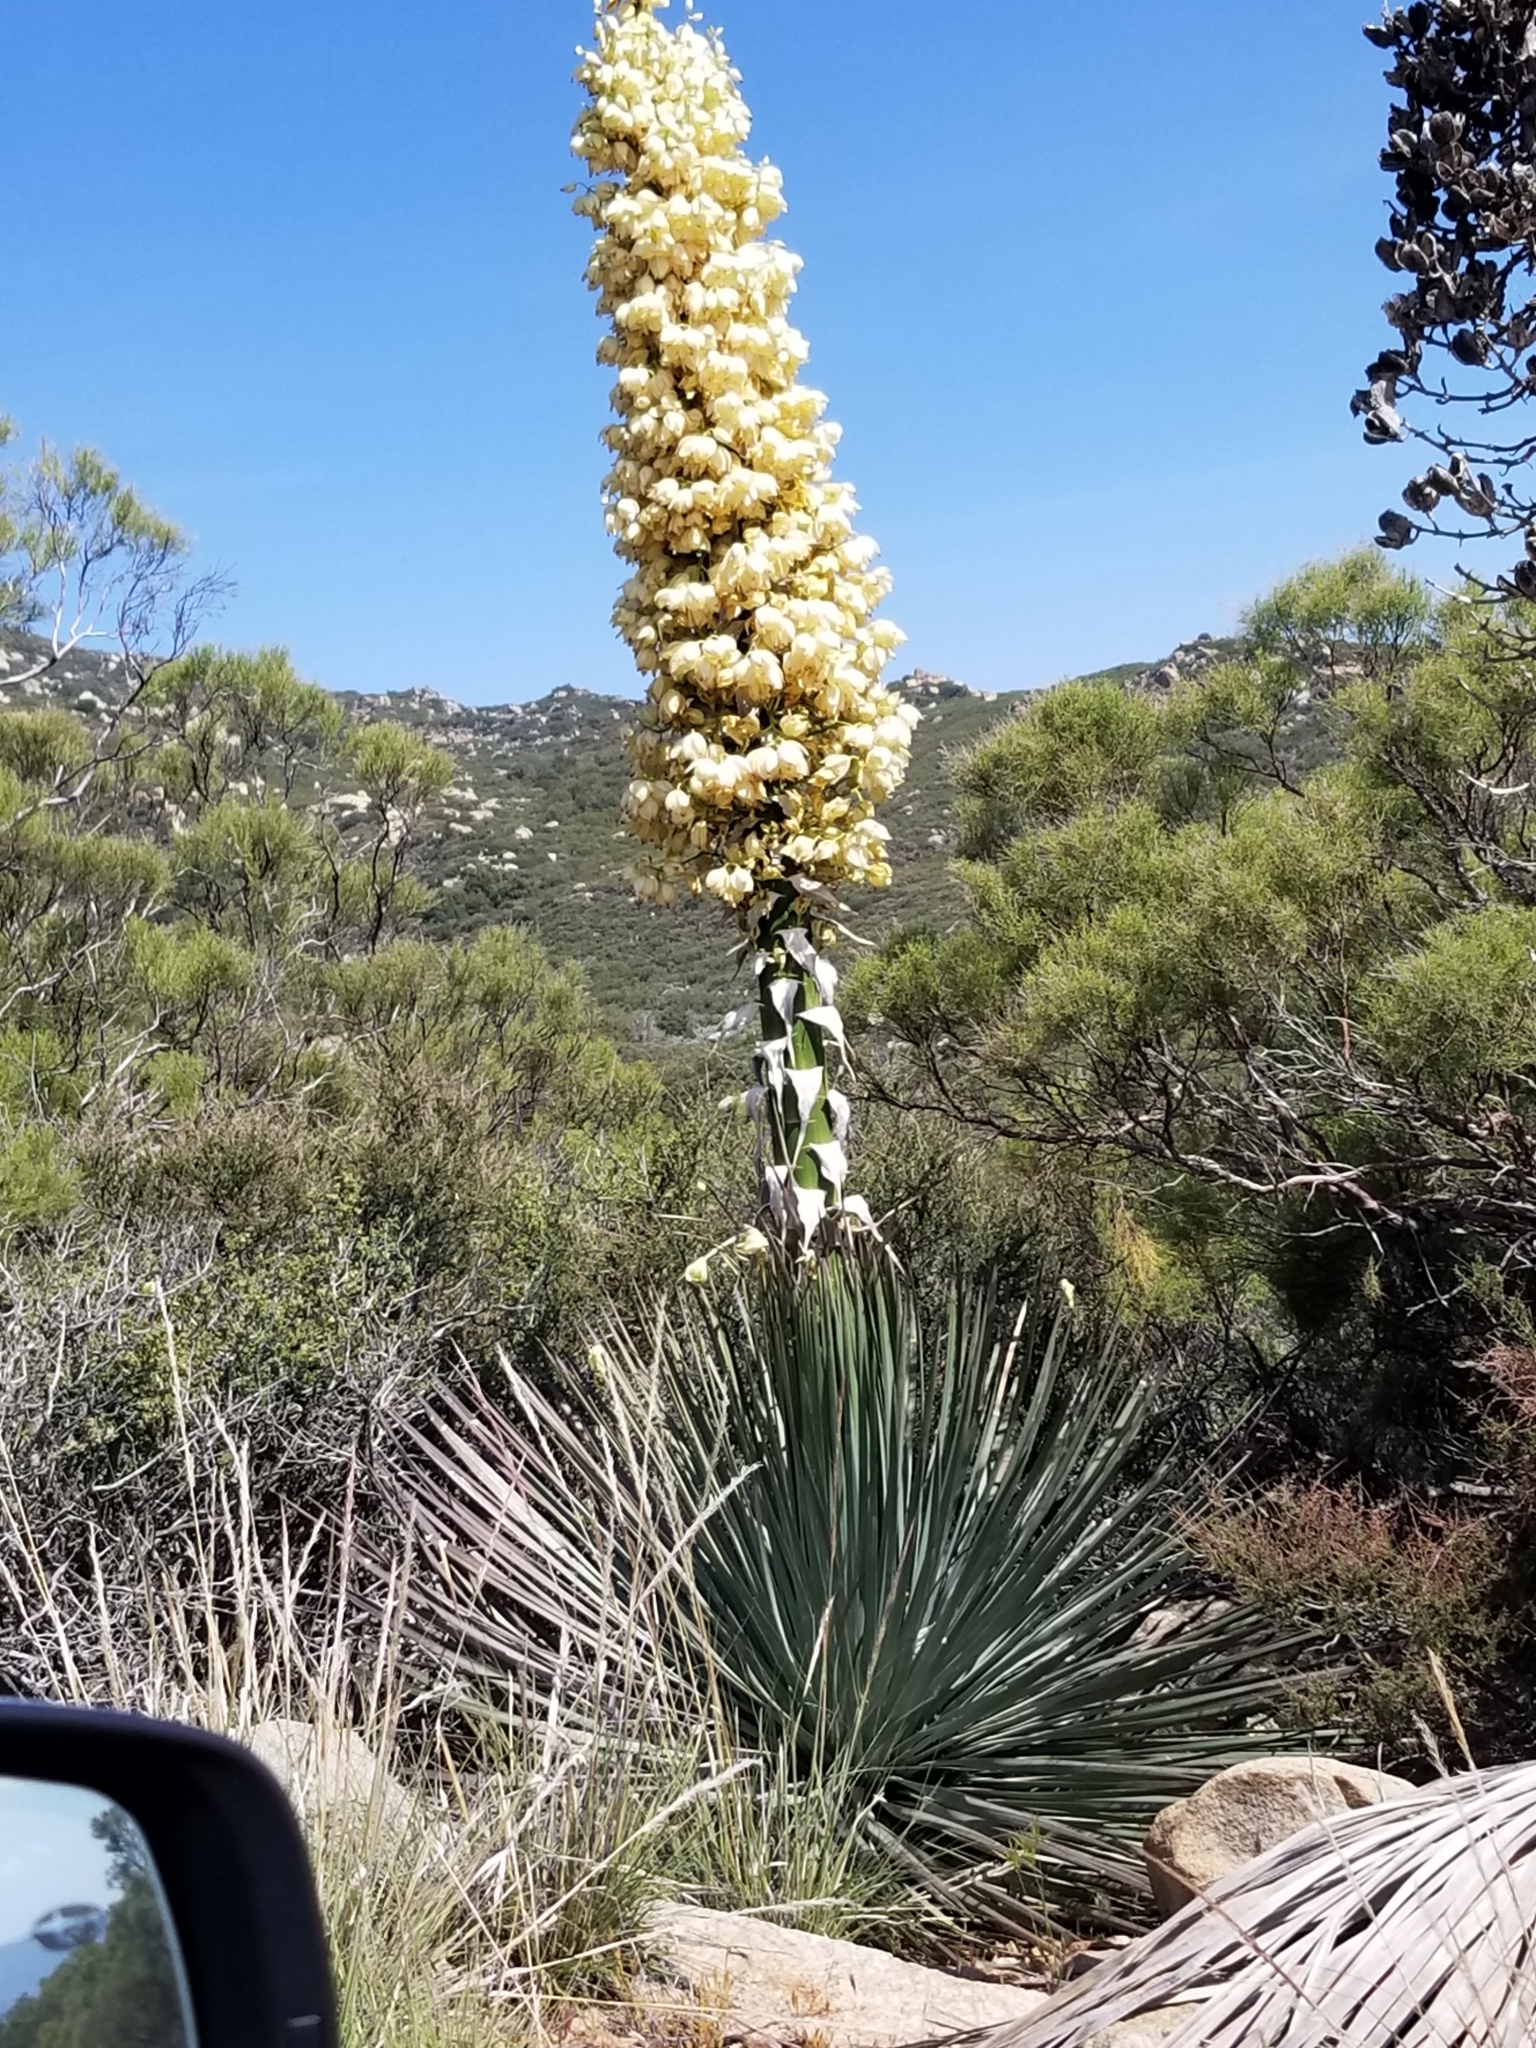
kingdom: Plantae
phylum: Tracheophyta
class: Liliopsida
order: Asparagales
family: Asparagaceae
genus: Hesperoyucca
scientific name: Hesperoyucca whipplei
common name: Our lord's-candle
